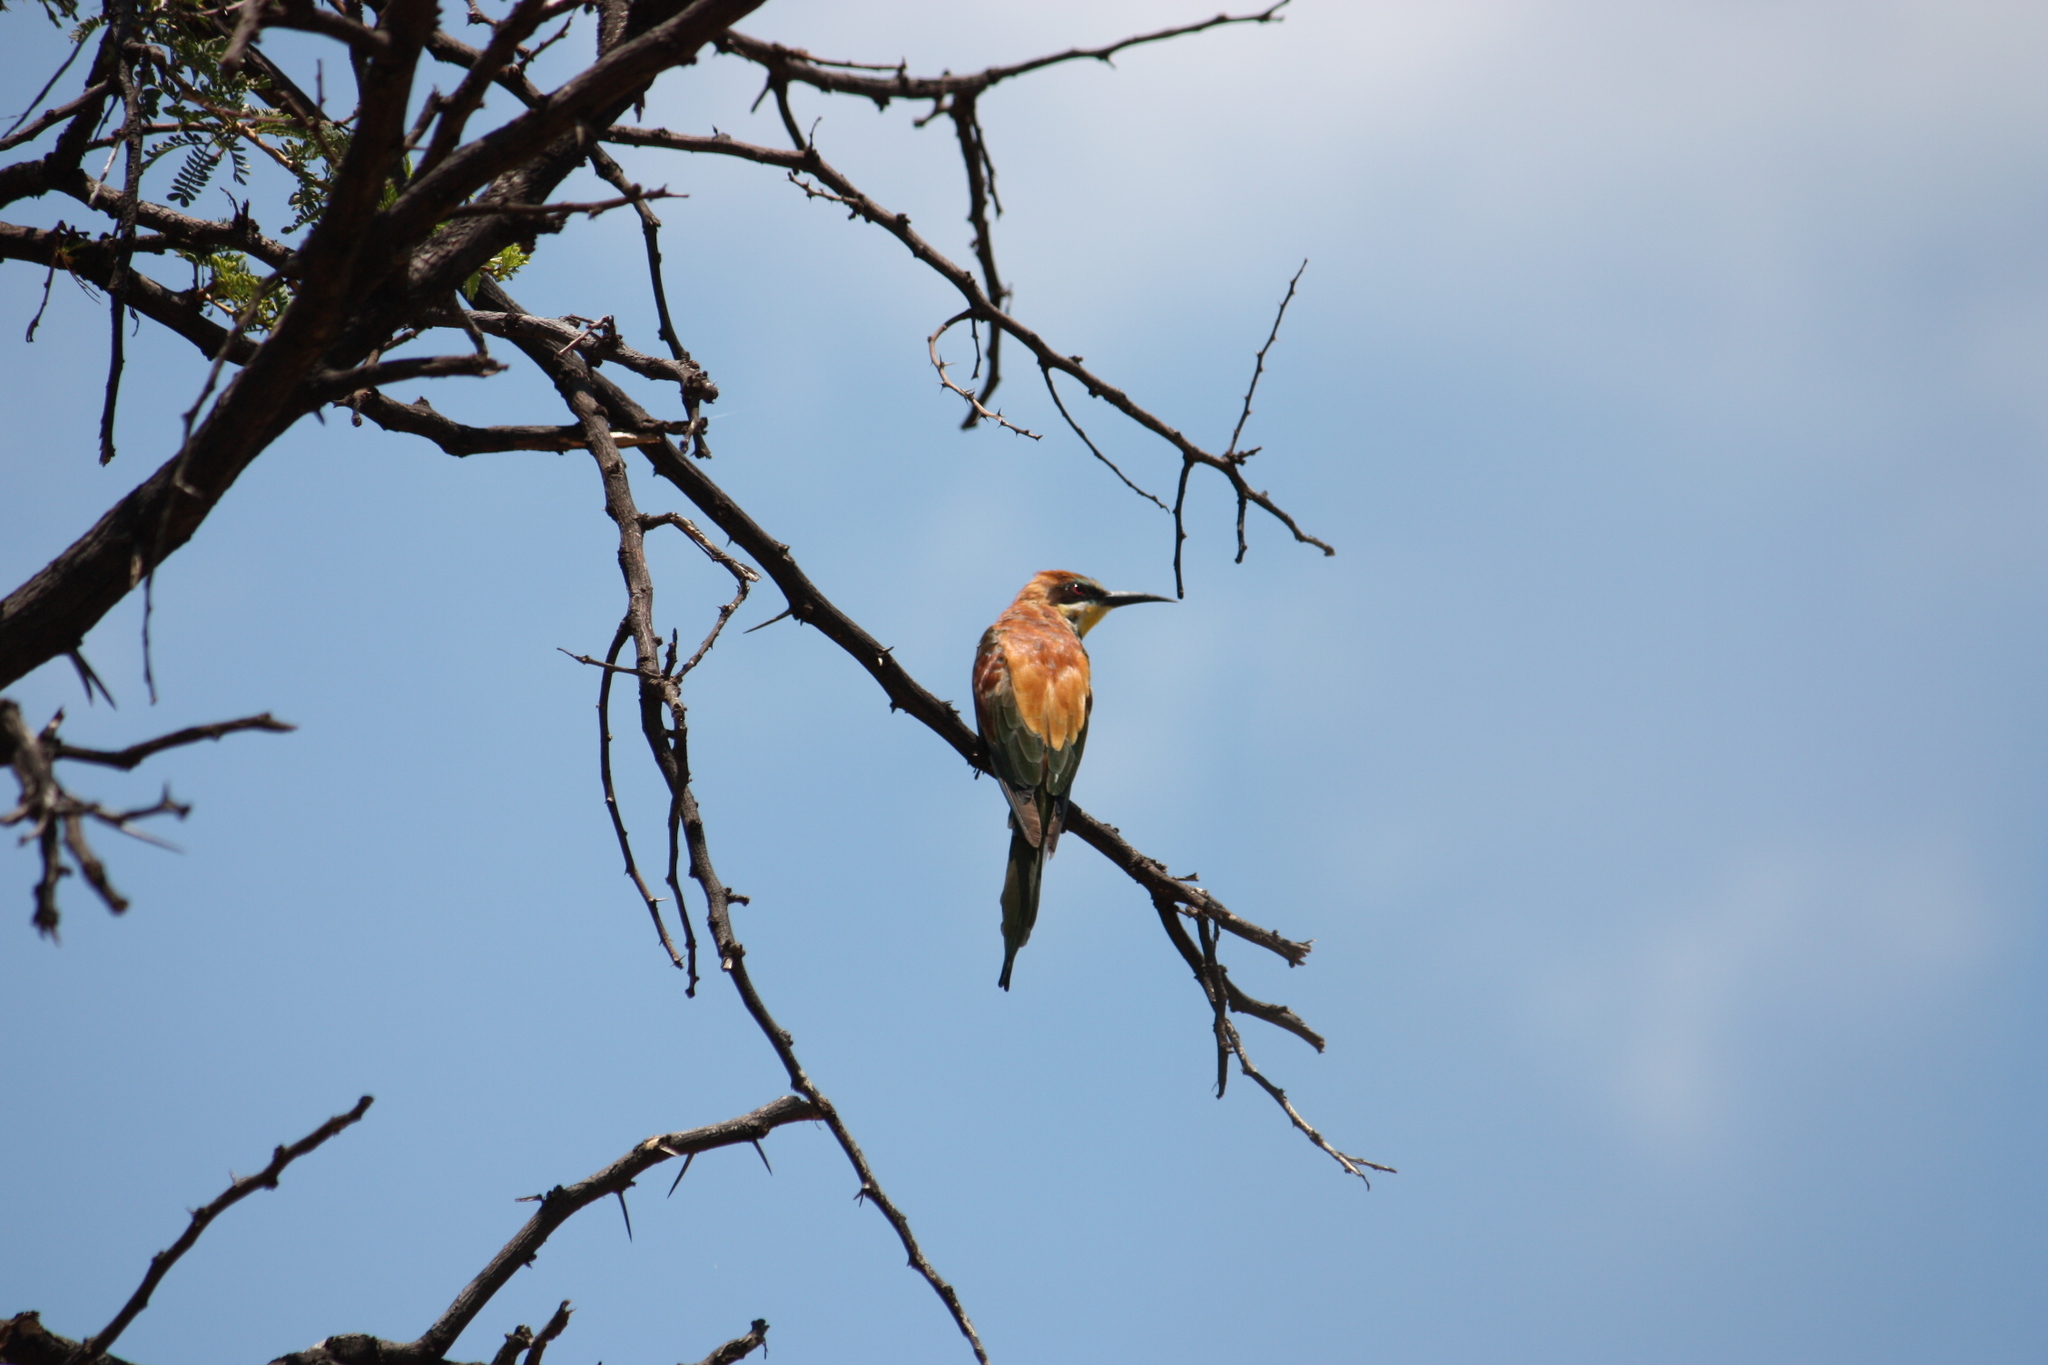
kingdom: Animalia
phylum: Chordata
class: Aves
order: Coraciiformes
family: Meropidae
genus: Merops
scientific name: Merops apiaster
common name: European bee-eater
